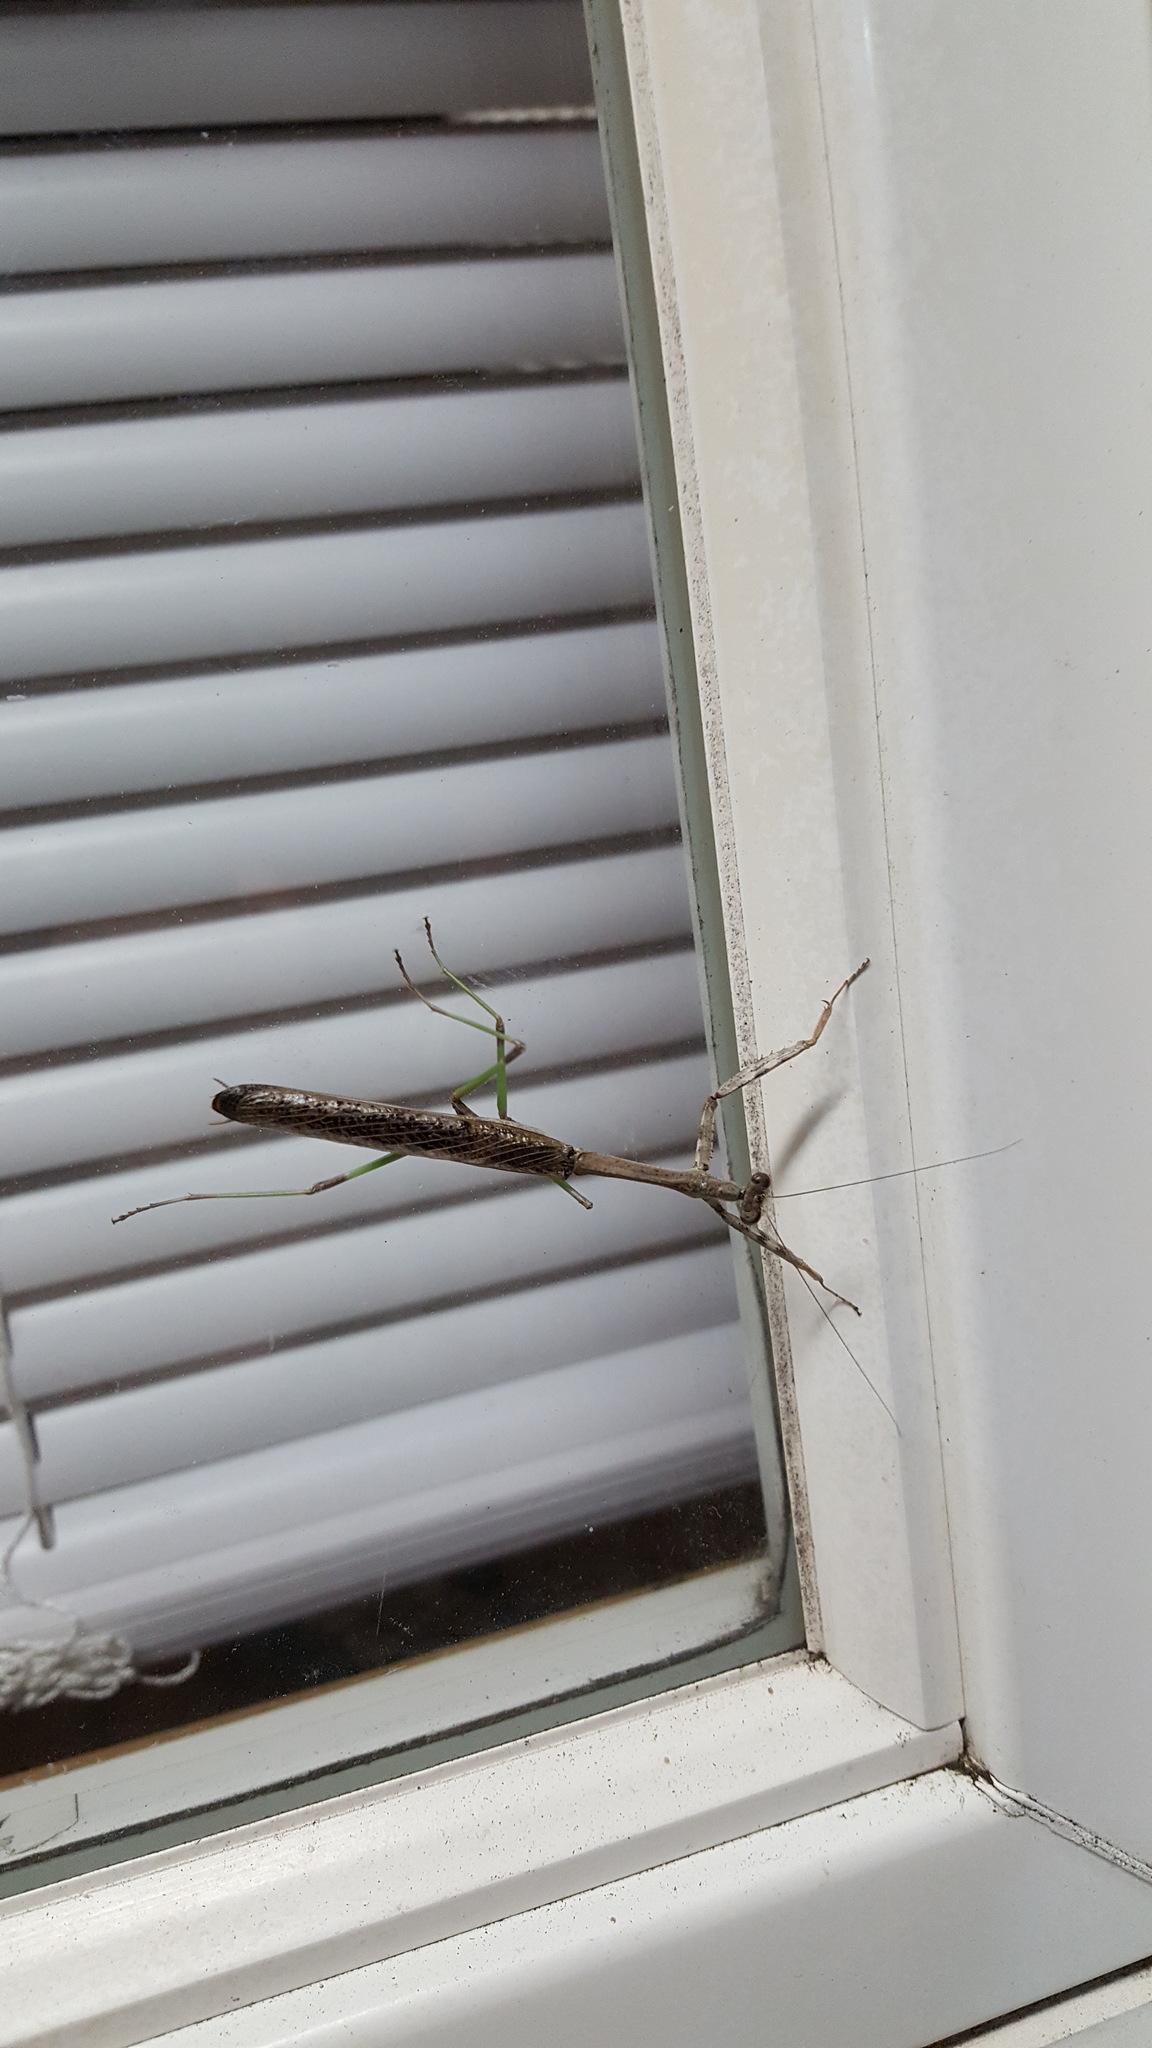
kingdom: Animalia
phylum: Arthropoda
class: Insecta
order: Mantodea
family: Mantidae
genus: Stagmomantis
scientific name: Stagmomantis carolina
